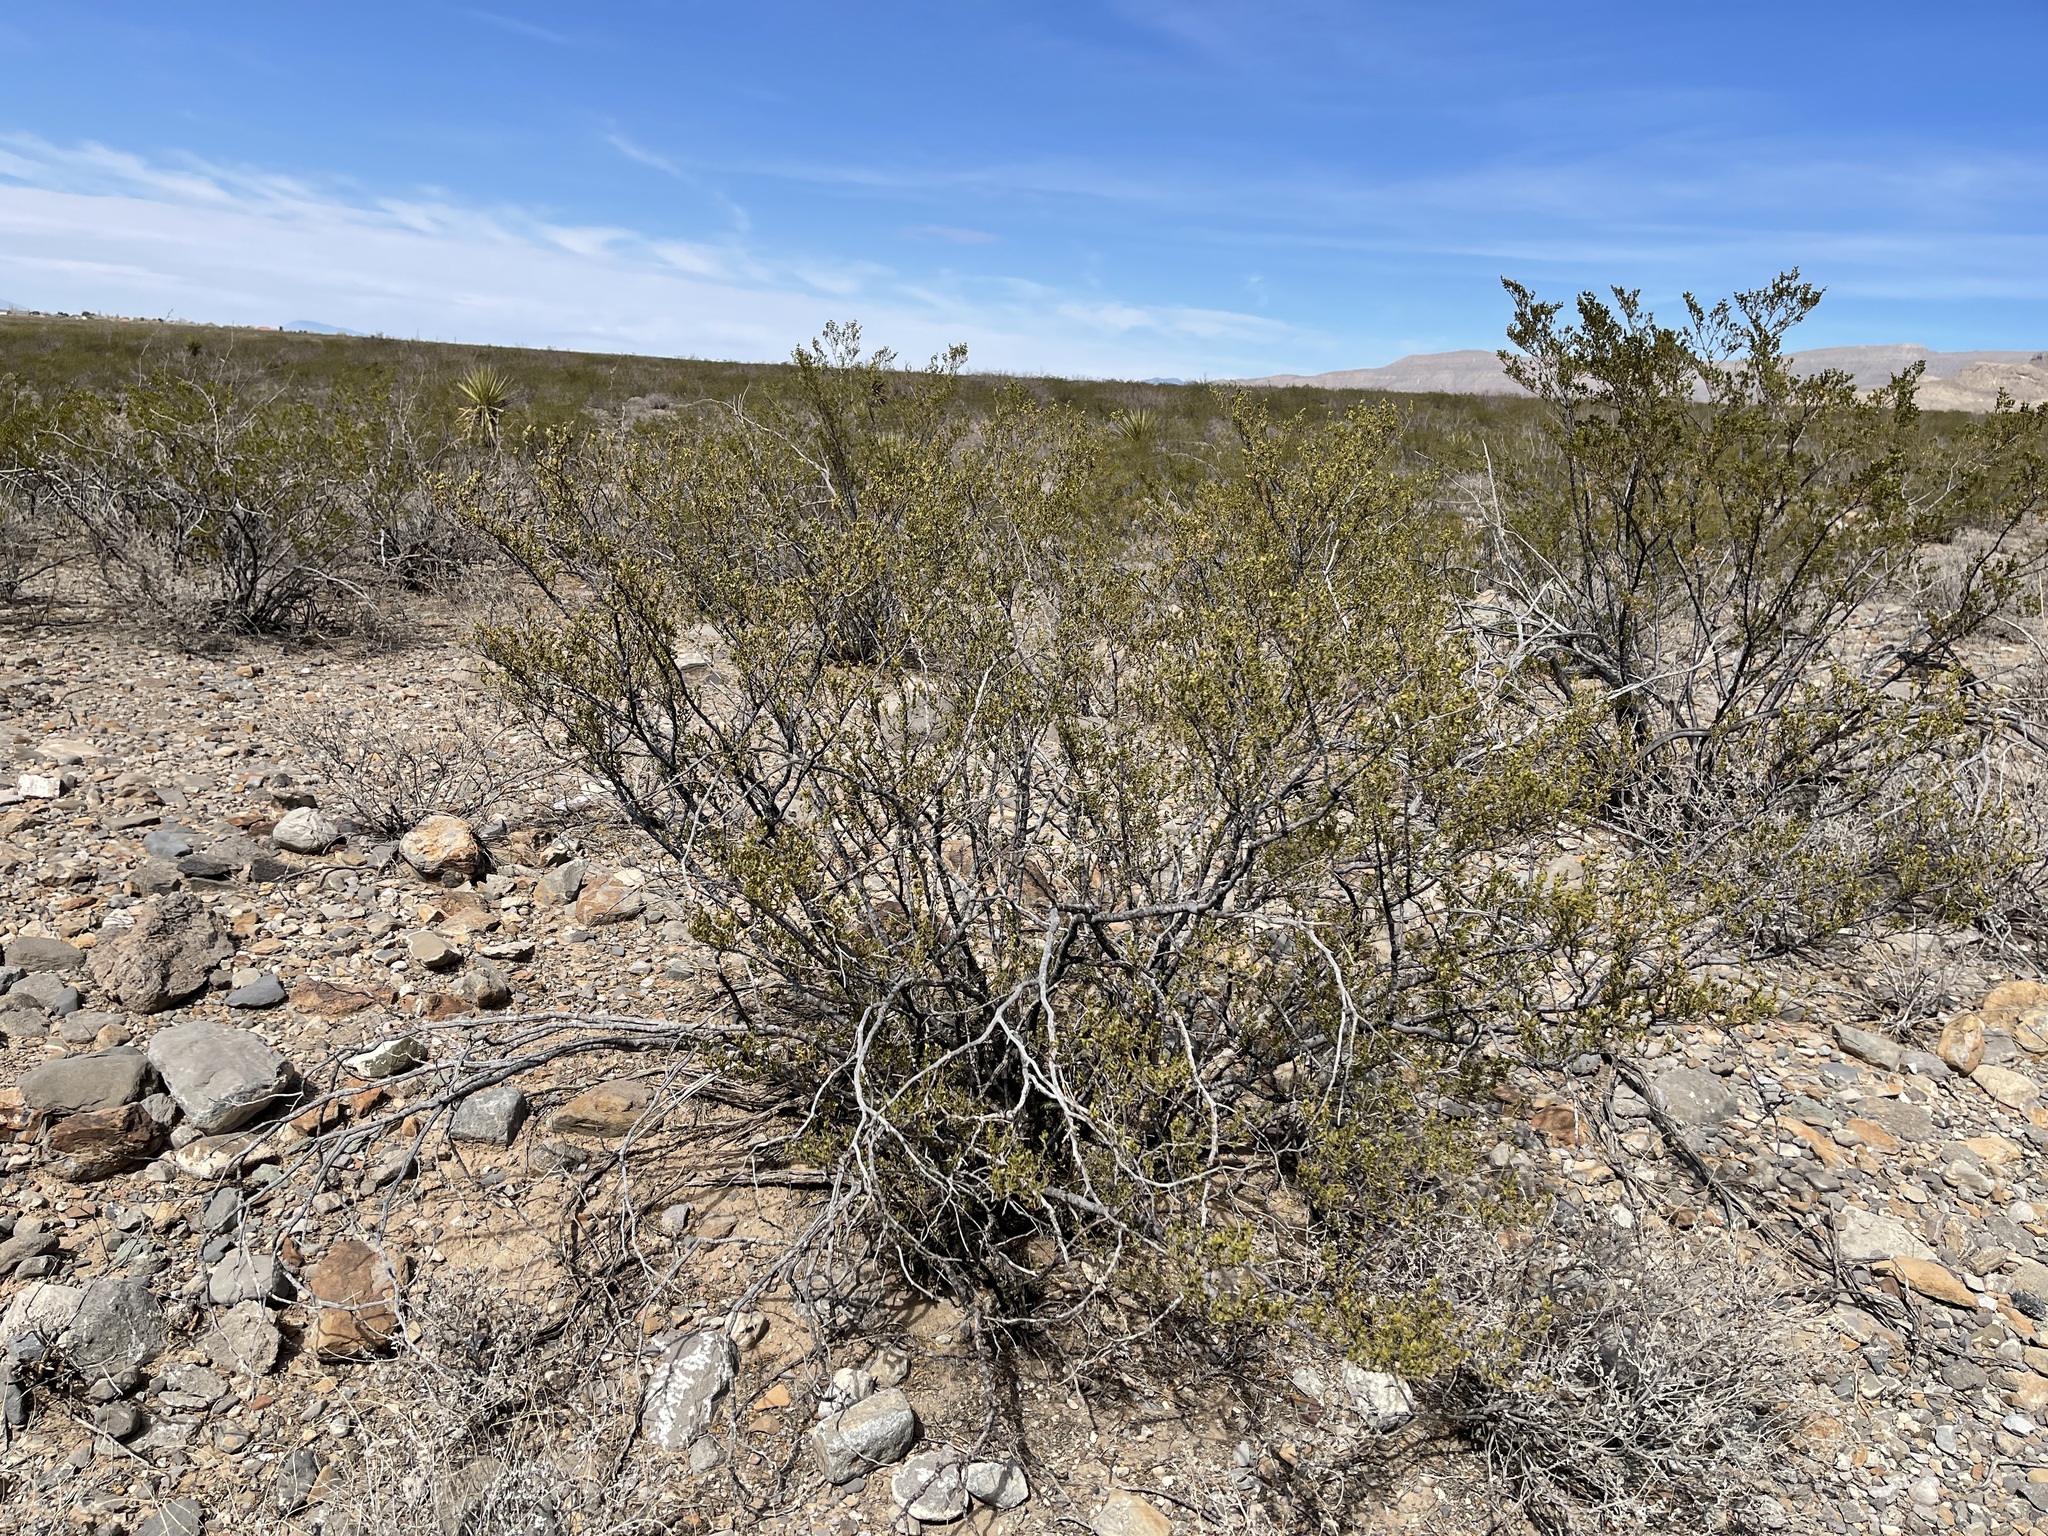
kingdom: Plantae
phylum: Tracheophyta
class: Magnoliopsida
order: Zygophyllales
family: Zygophyllaceae
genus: Larrea
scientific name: Larrea tridentata
